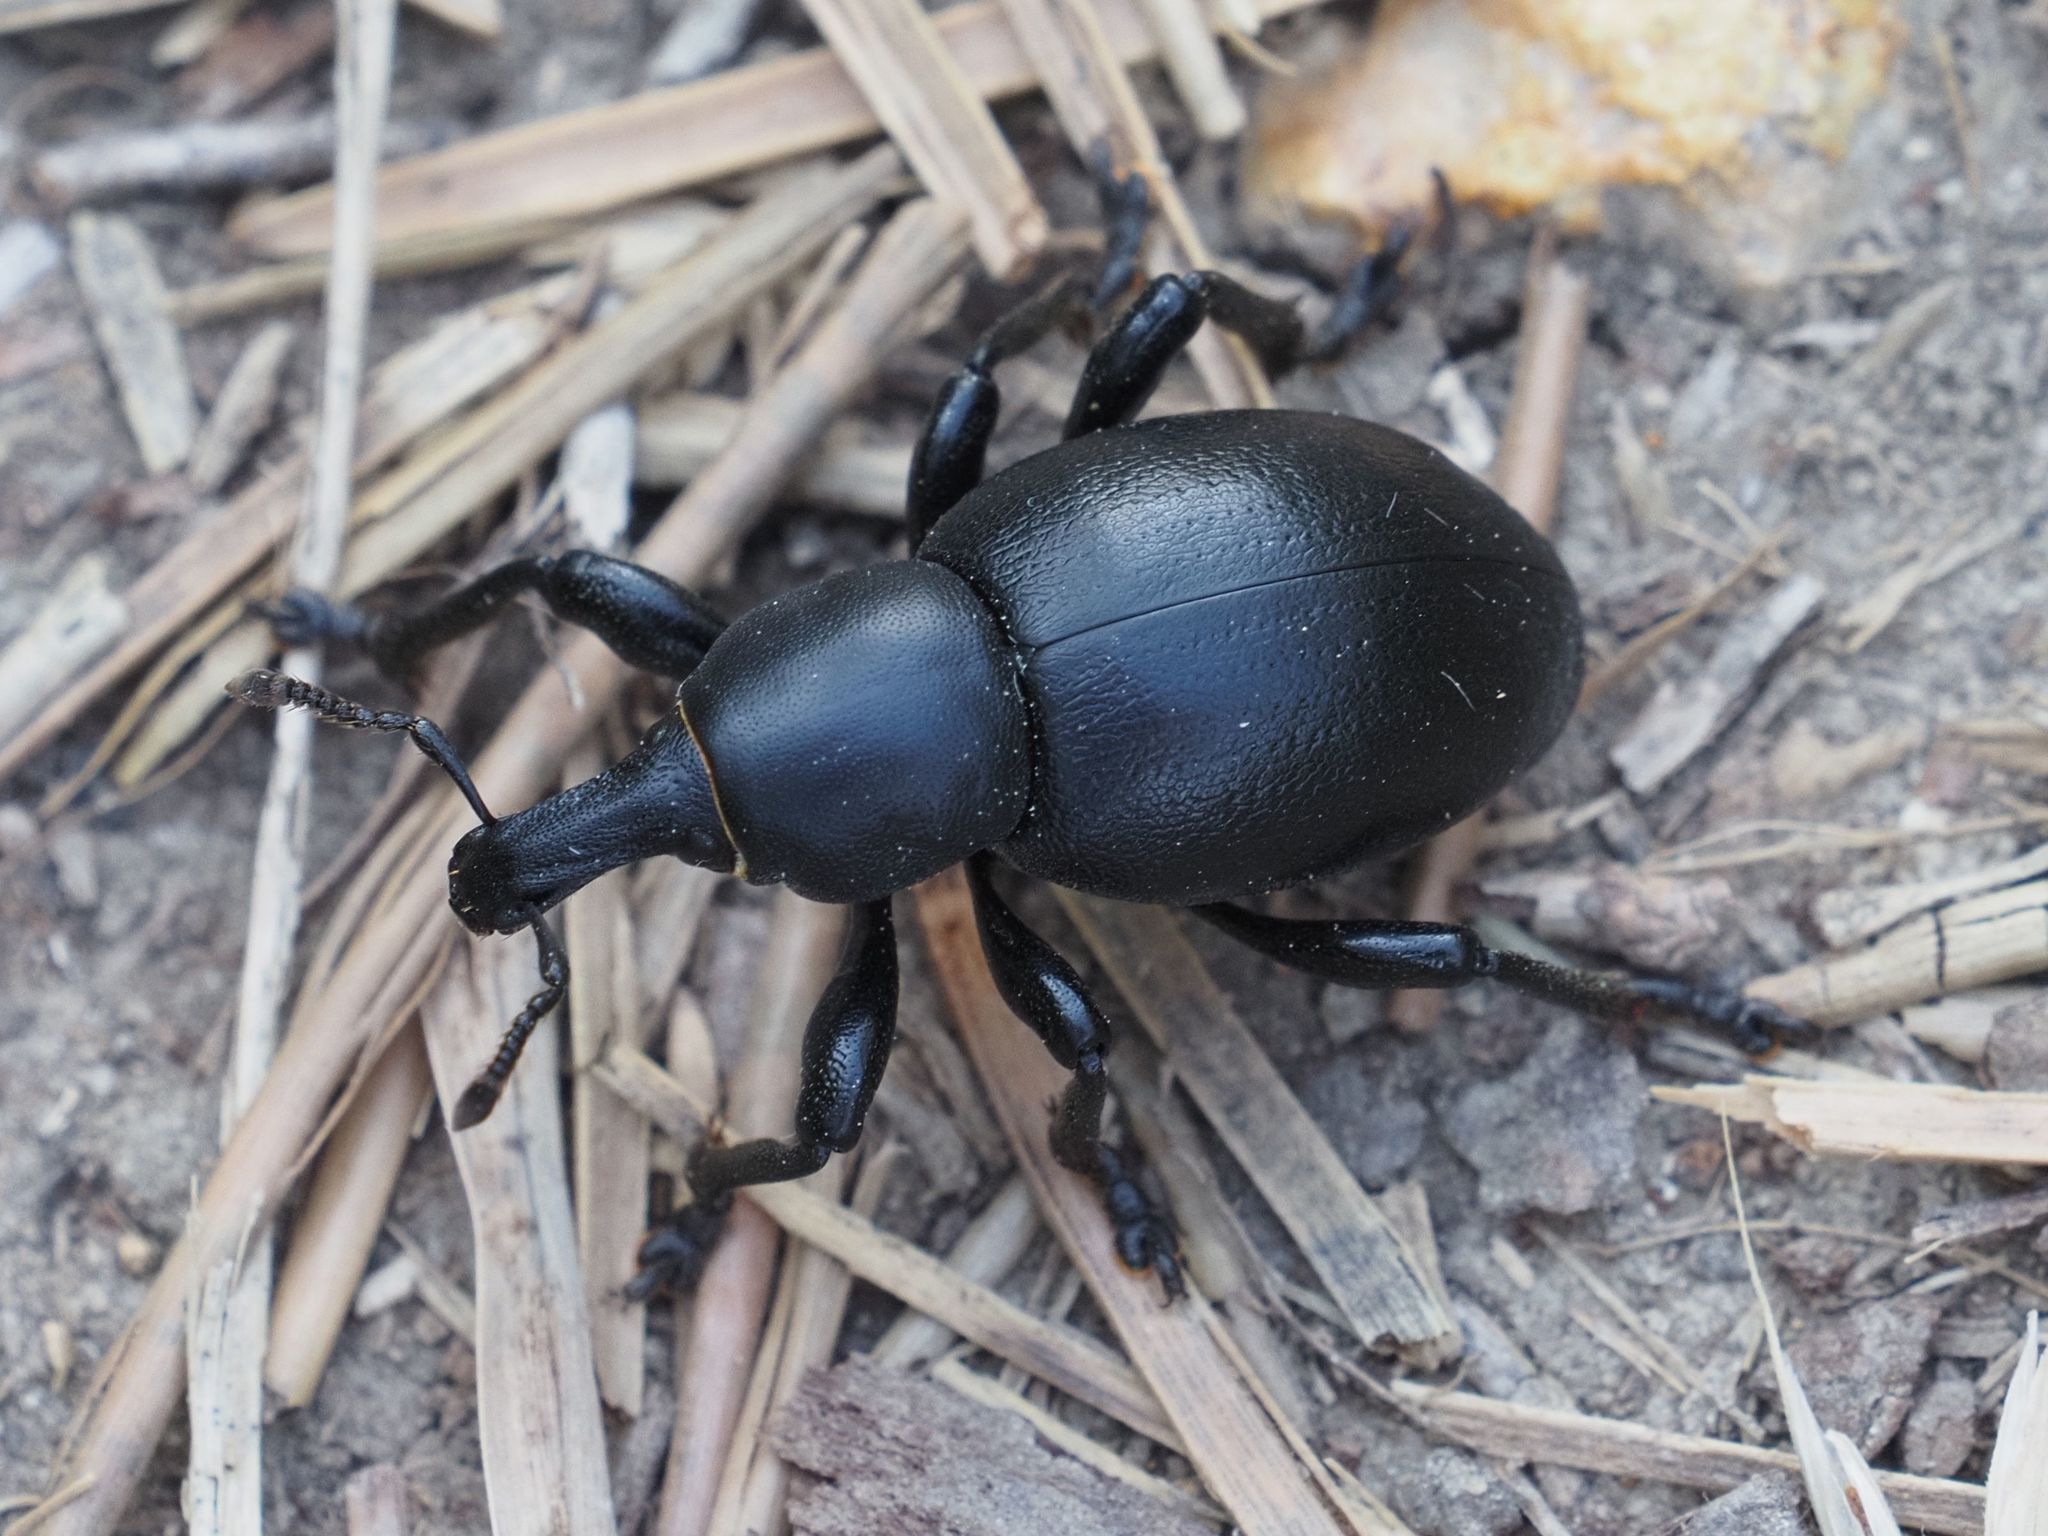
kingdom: Animalia
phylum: Arthropoda
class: Insecta
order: Coleoptera
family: Curculionidae
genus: Liparus
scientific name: Liparus dirus
